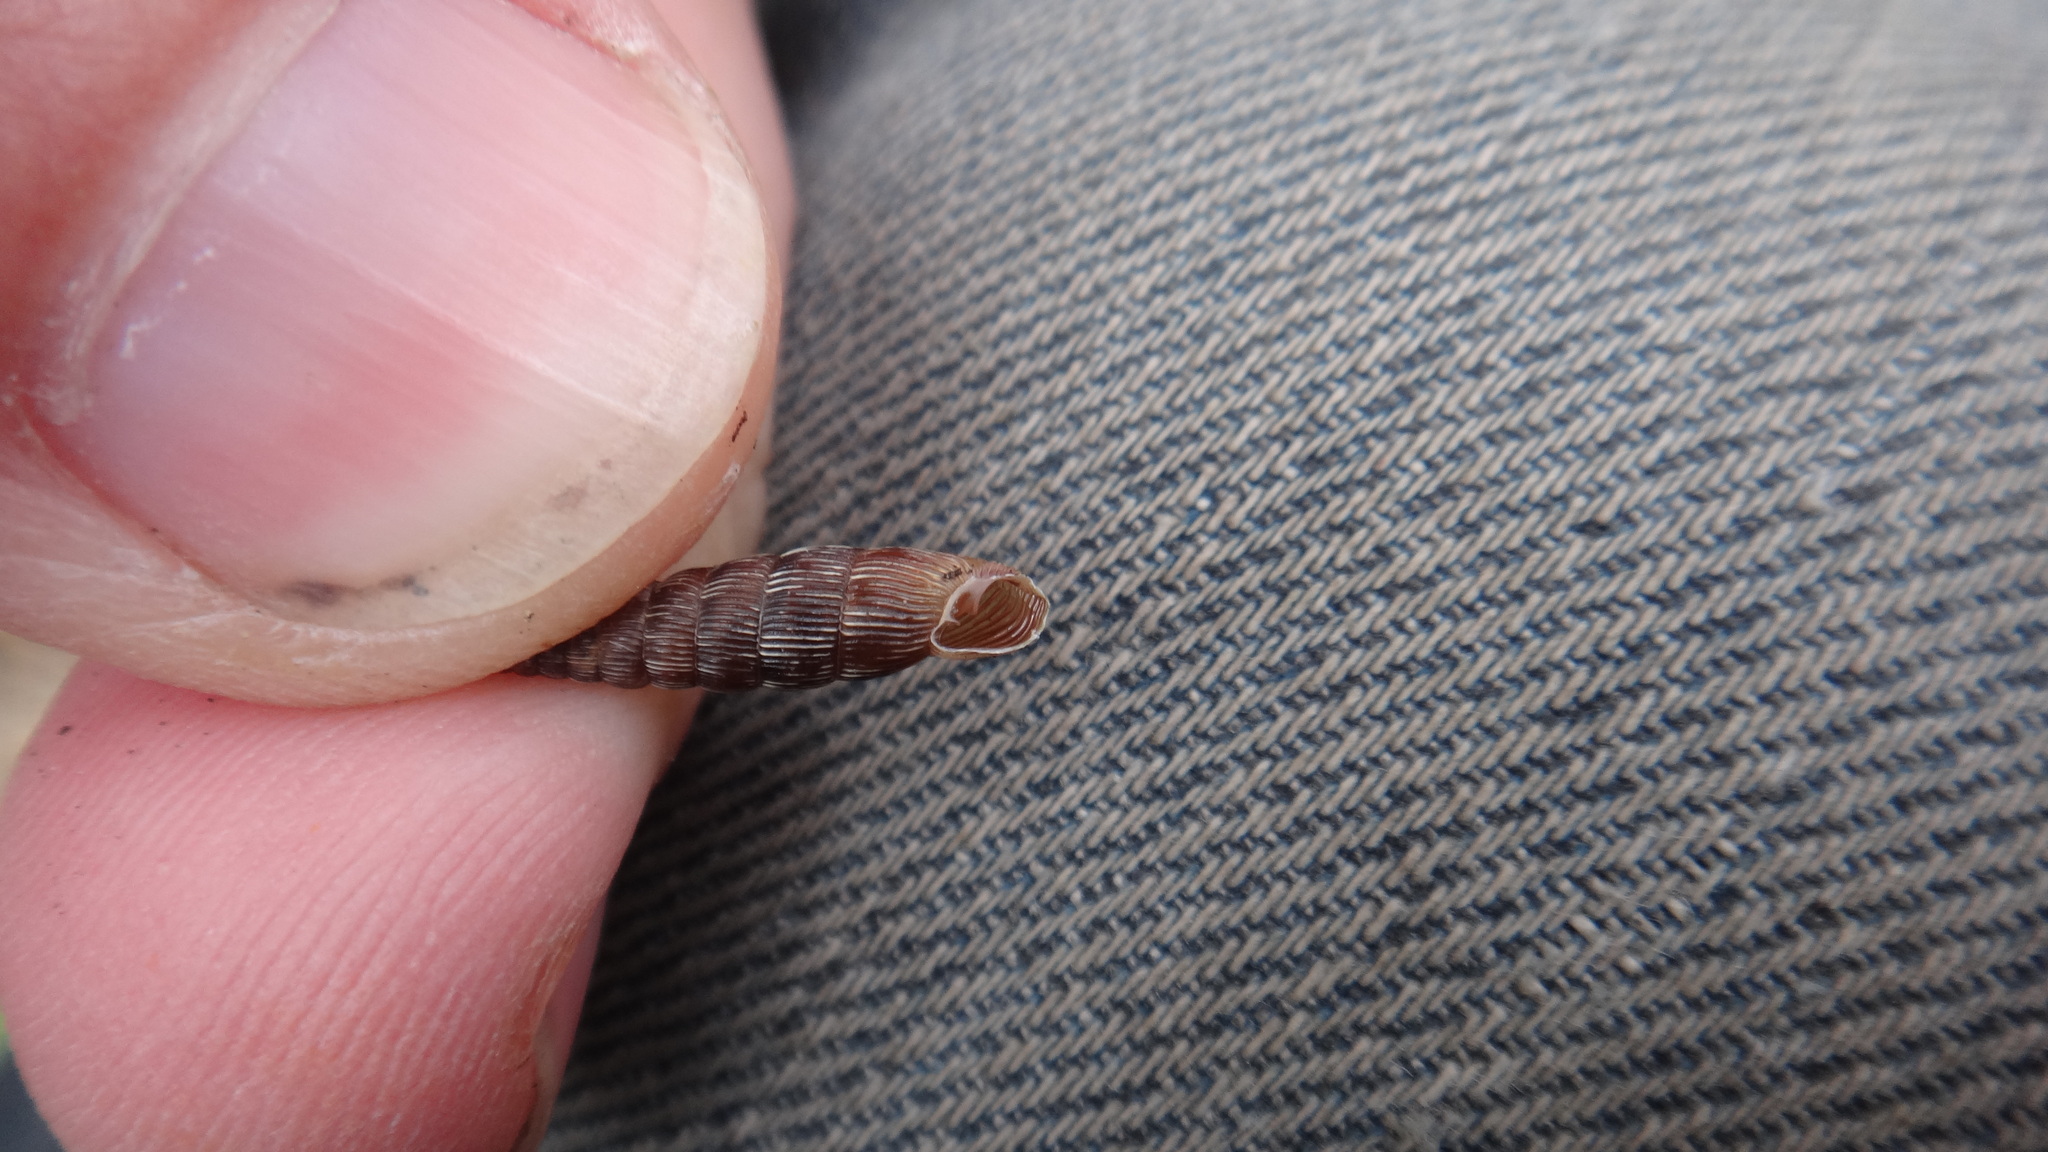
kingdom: Animalia
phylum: Mollusca
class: Gastropoda
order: Stylommatophora
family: Clausiliidae
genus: Strigillaria
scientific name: Strigillaria cana
